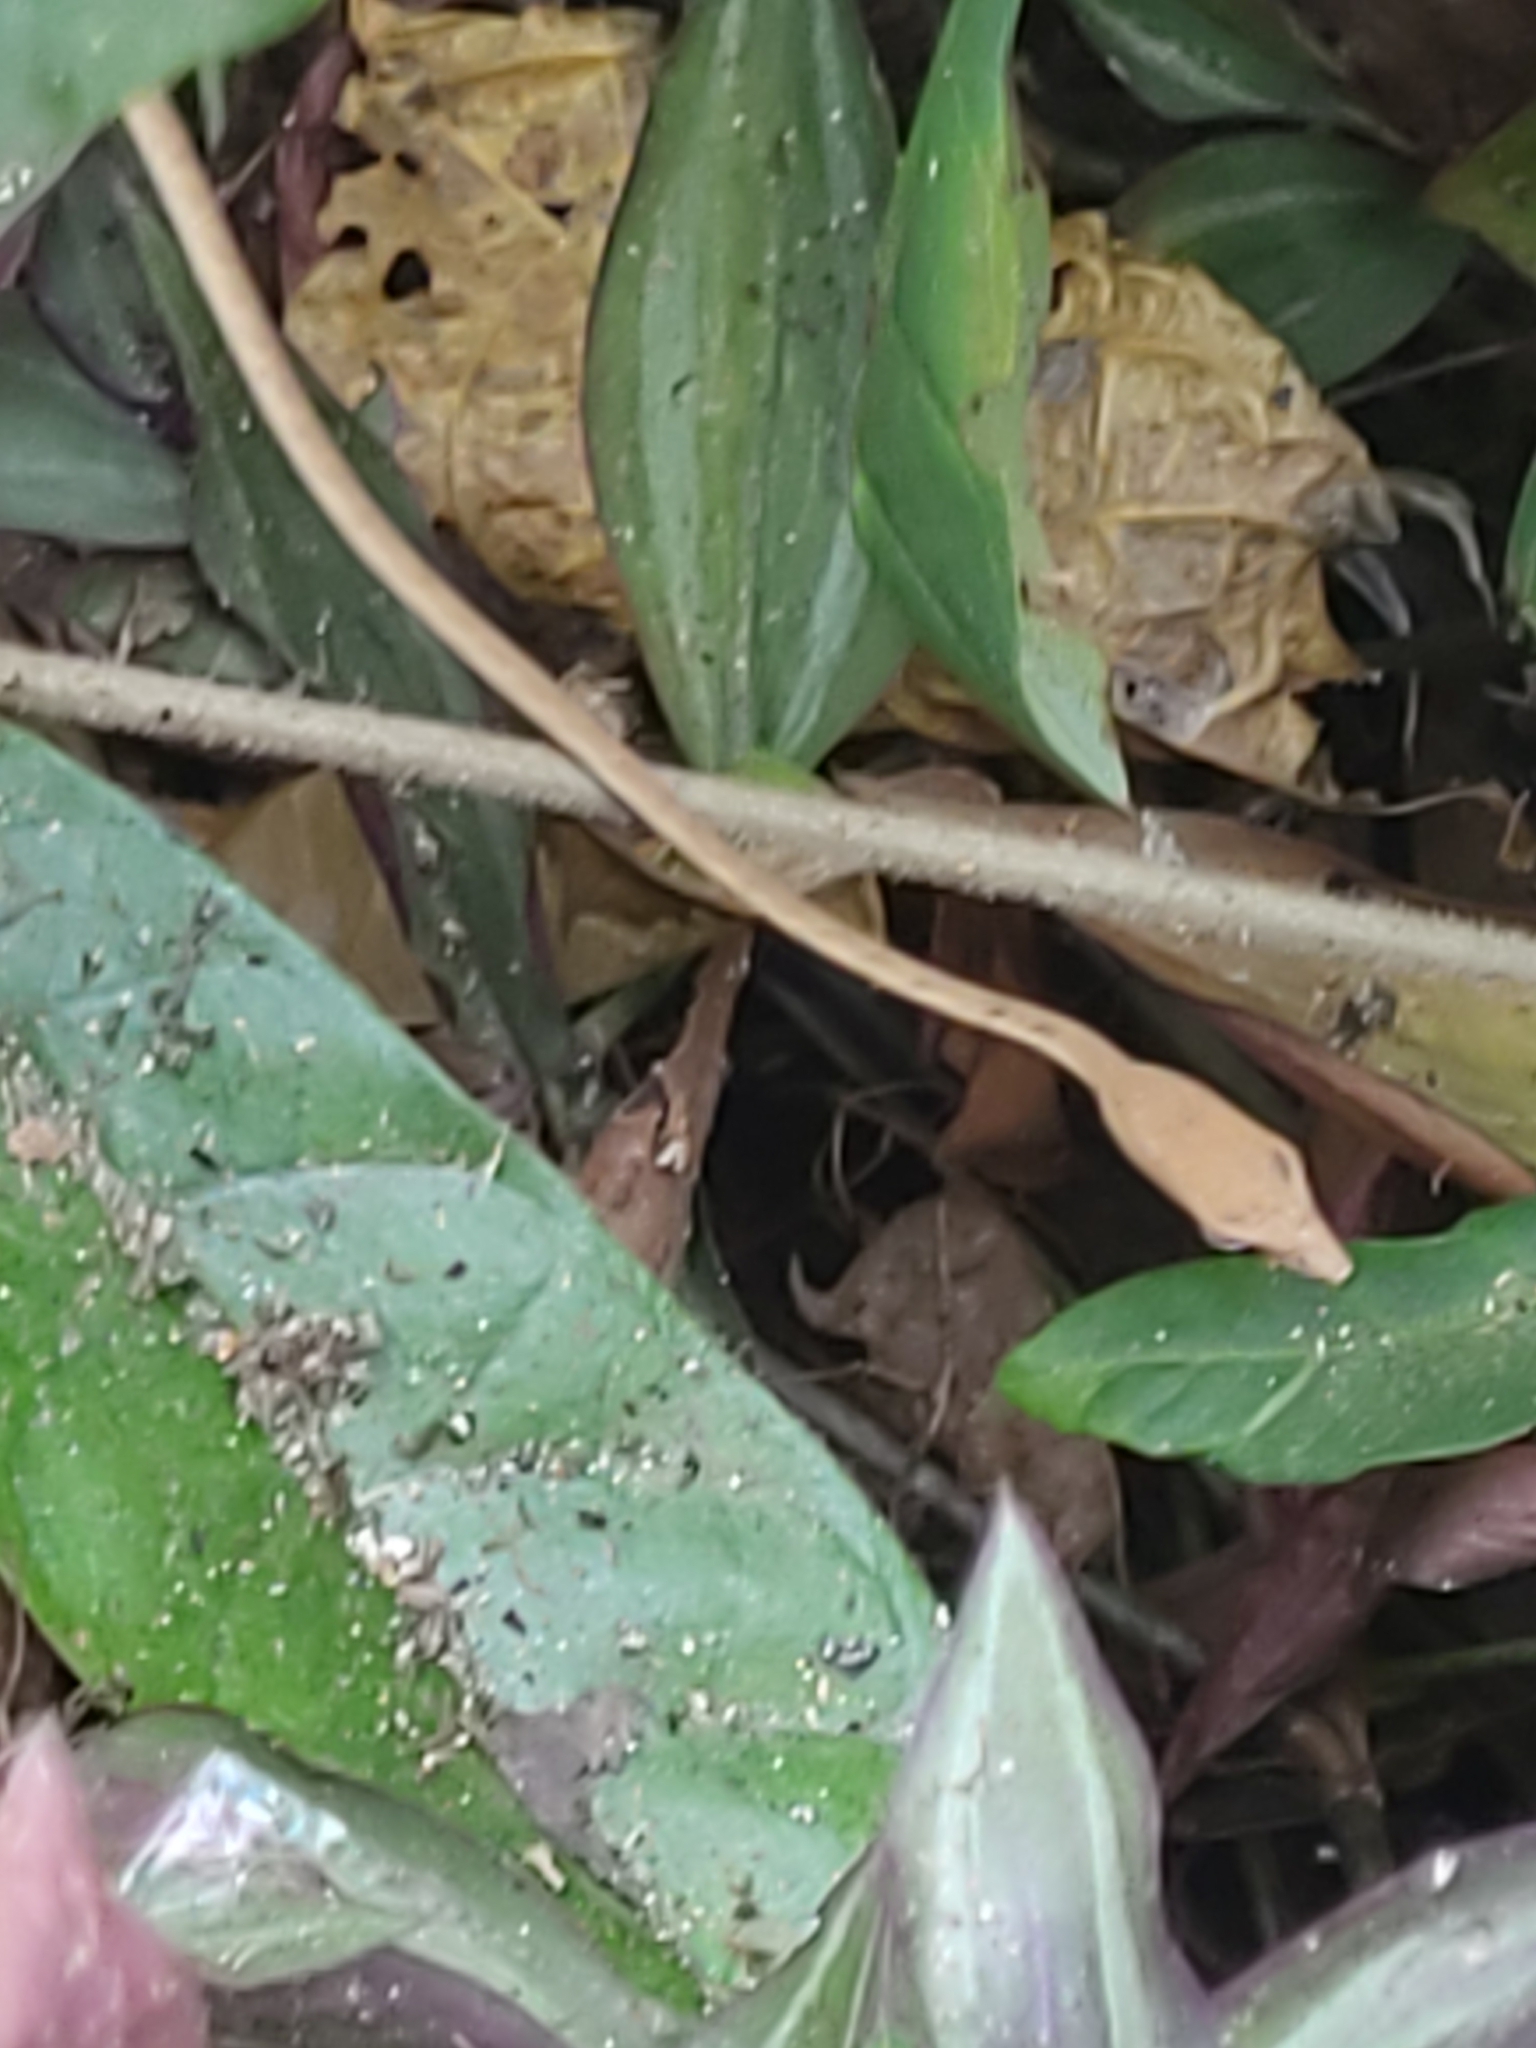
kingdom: Animalia
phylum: Chordata
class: Squamata
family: Colubridae
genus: Ahaetulla
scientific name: Ahaetulla prasina
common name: Oriental whip snake
